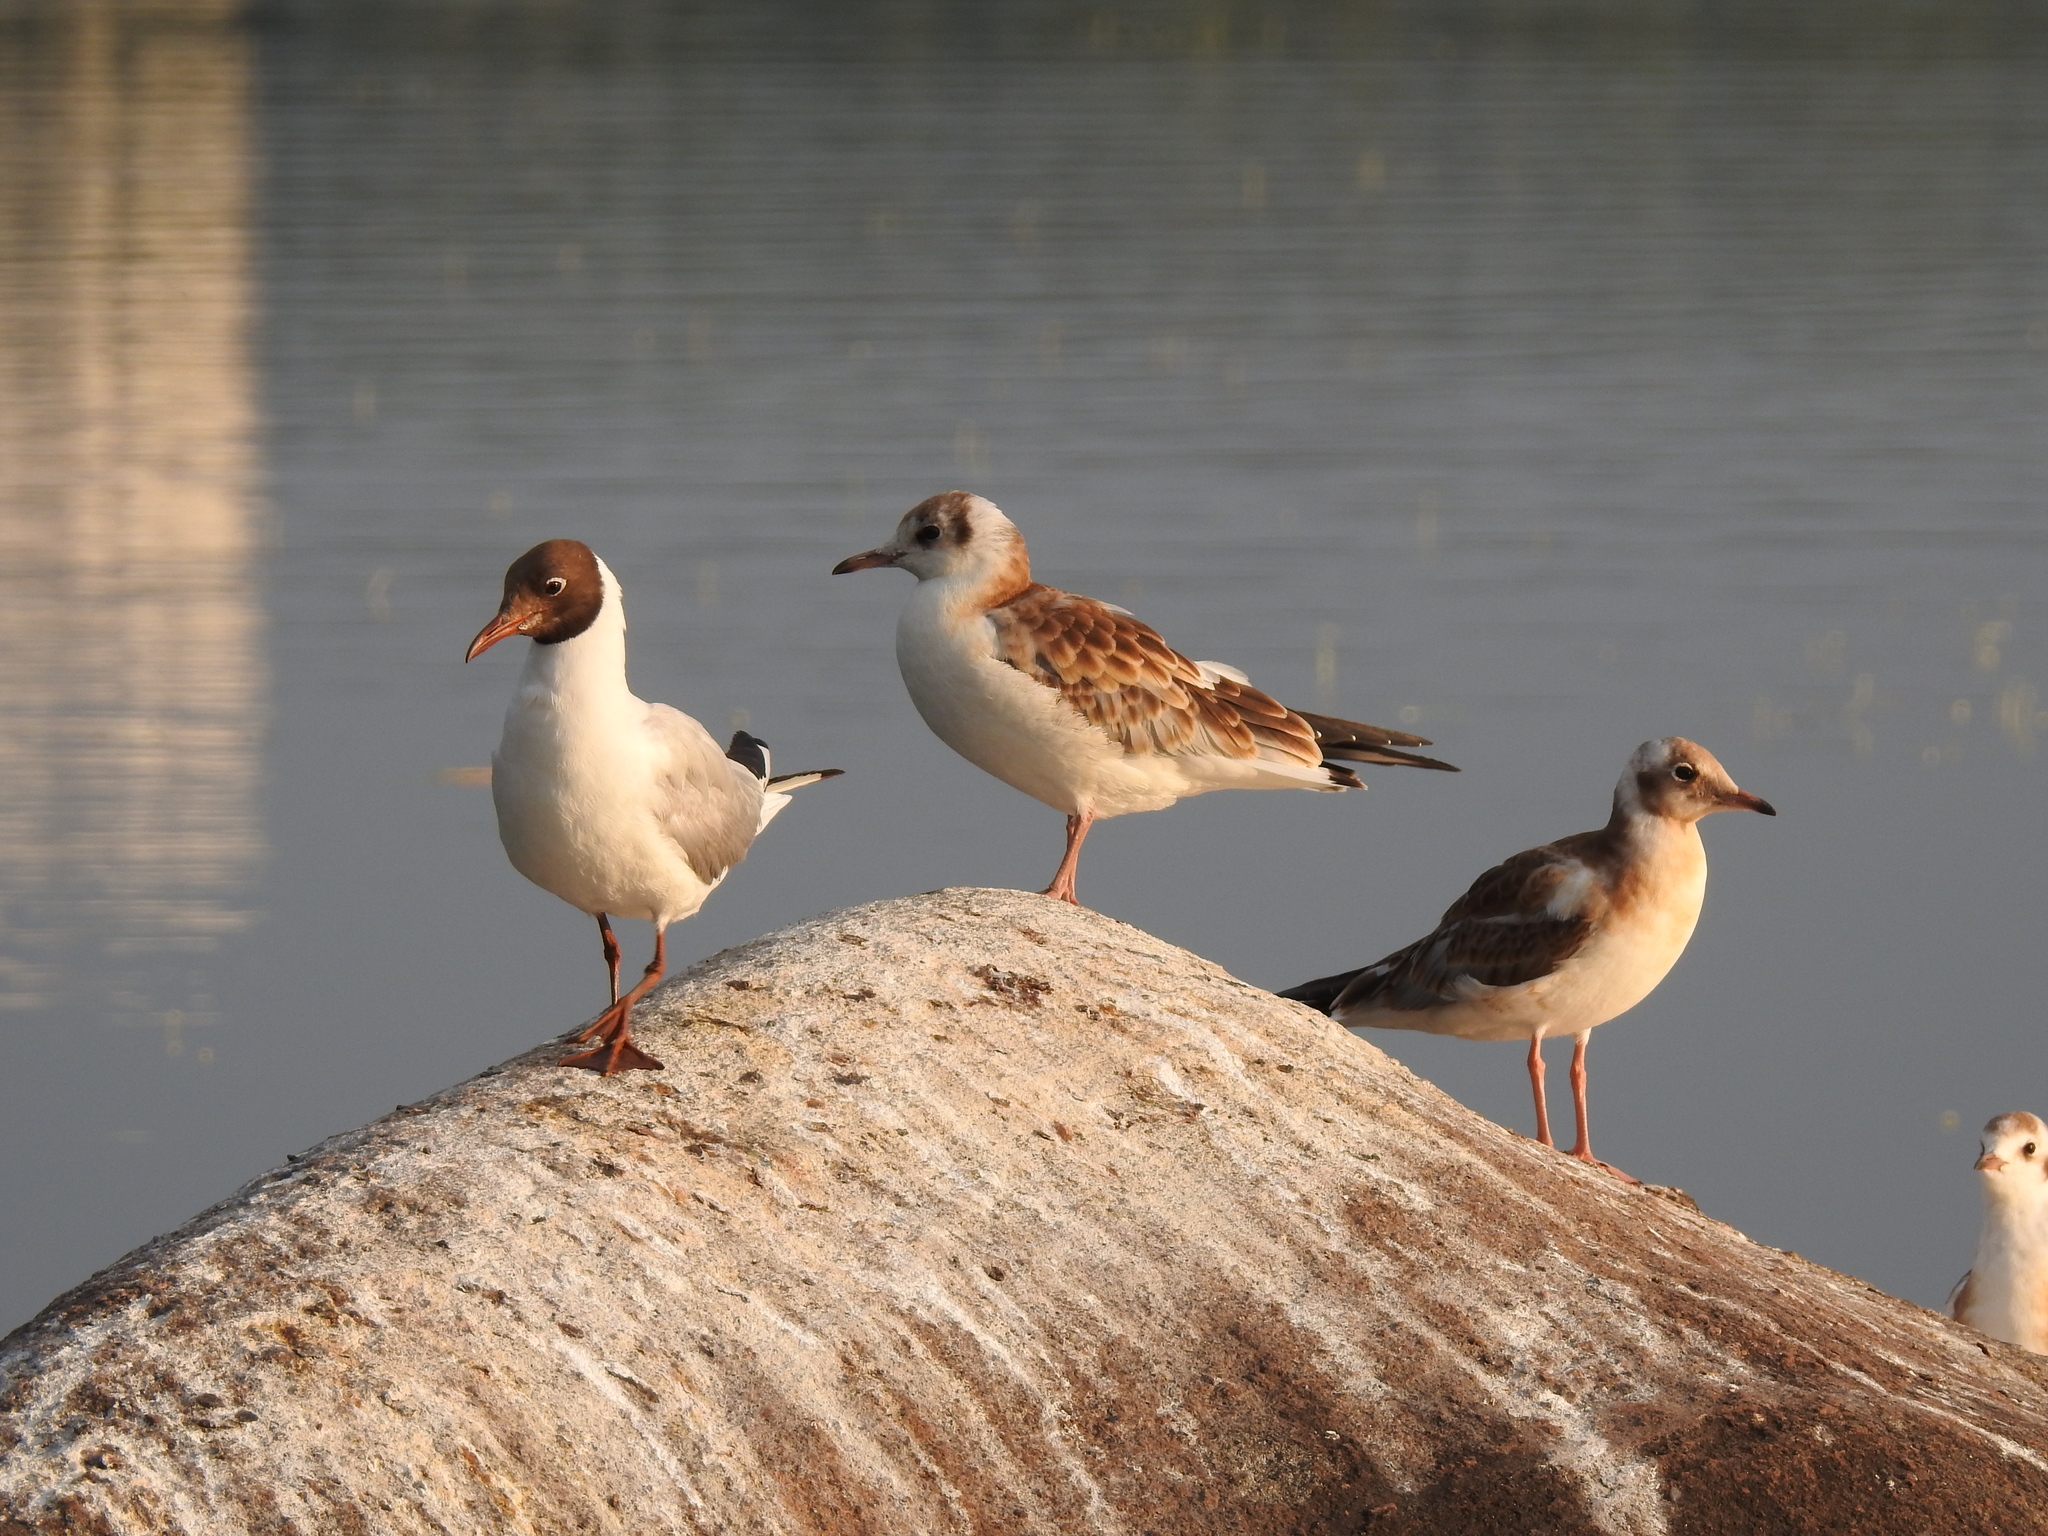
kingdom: Animalia
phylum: Chordata
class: Aves
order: Charadriiformes
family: Laridae
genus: Chroicocephalus
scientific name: Chroicocephalus ridibundus
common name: Black-headed gull
